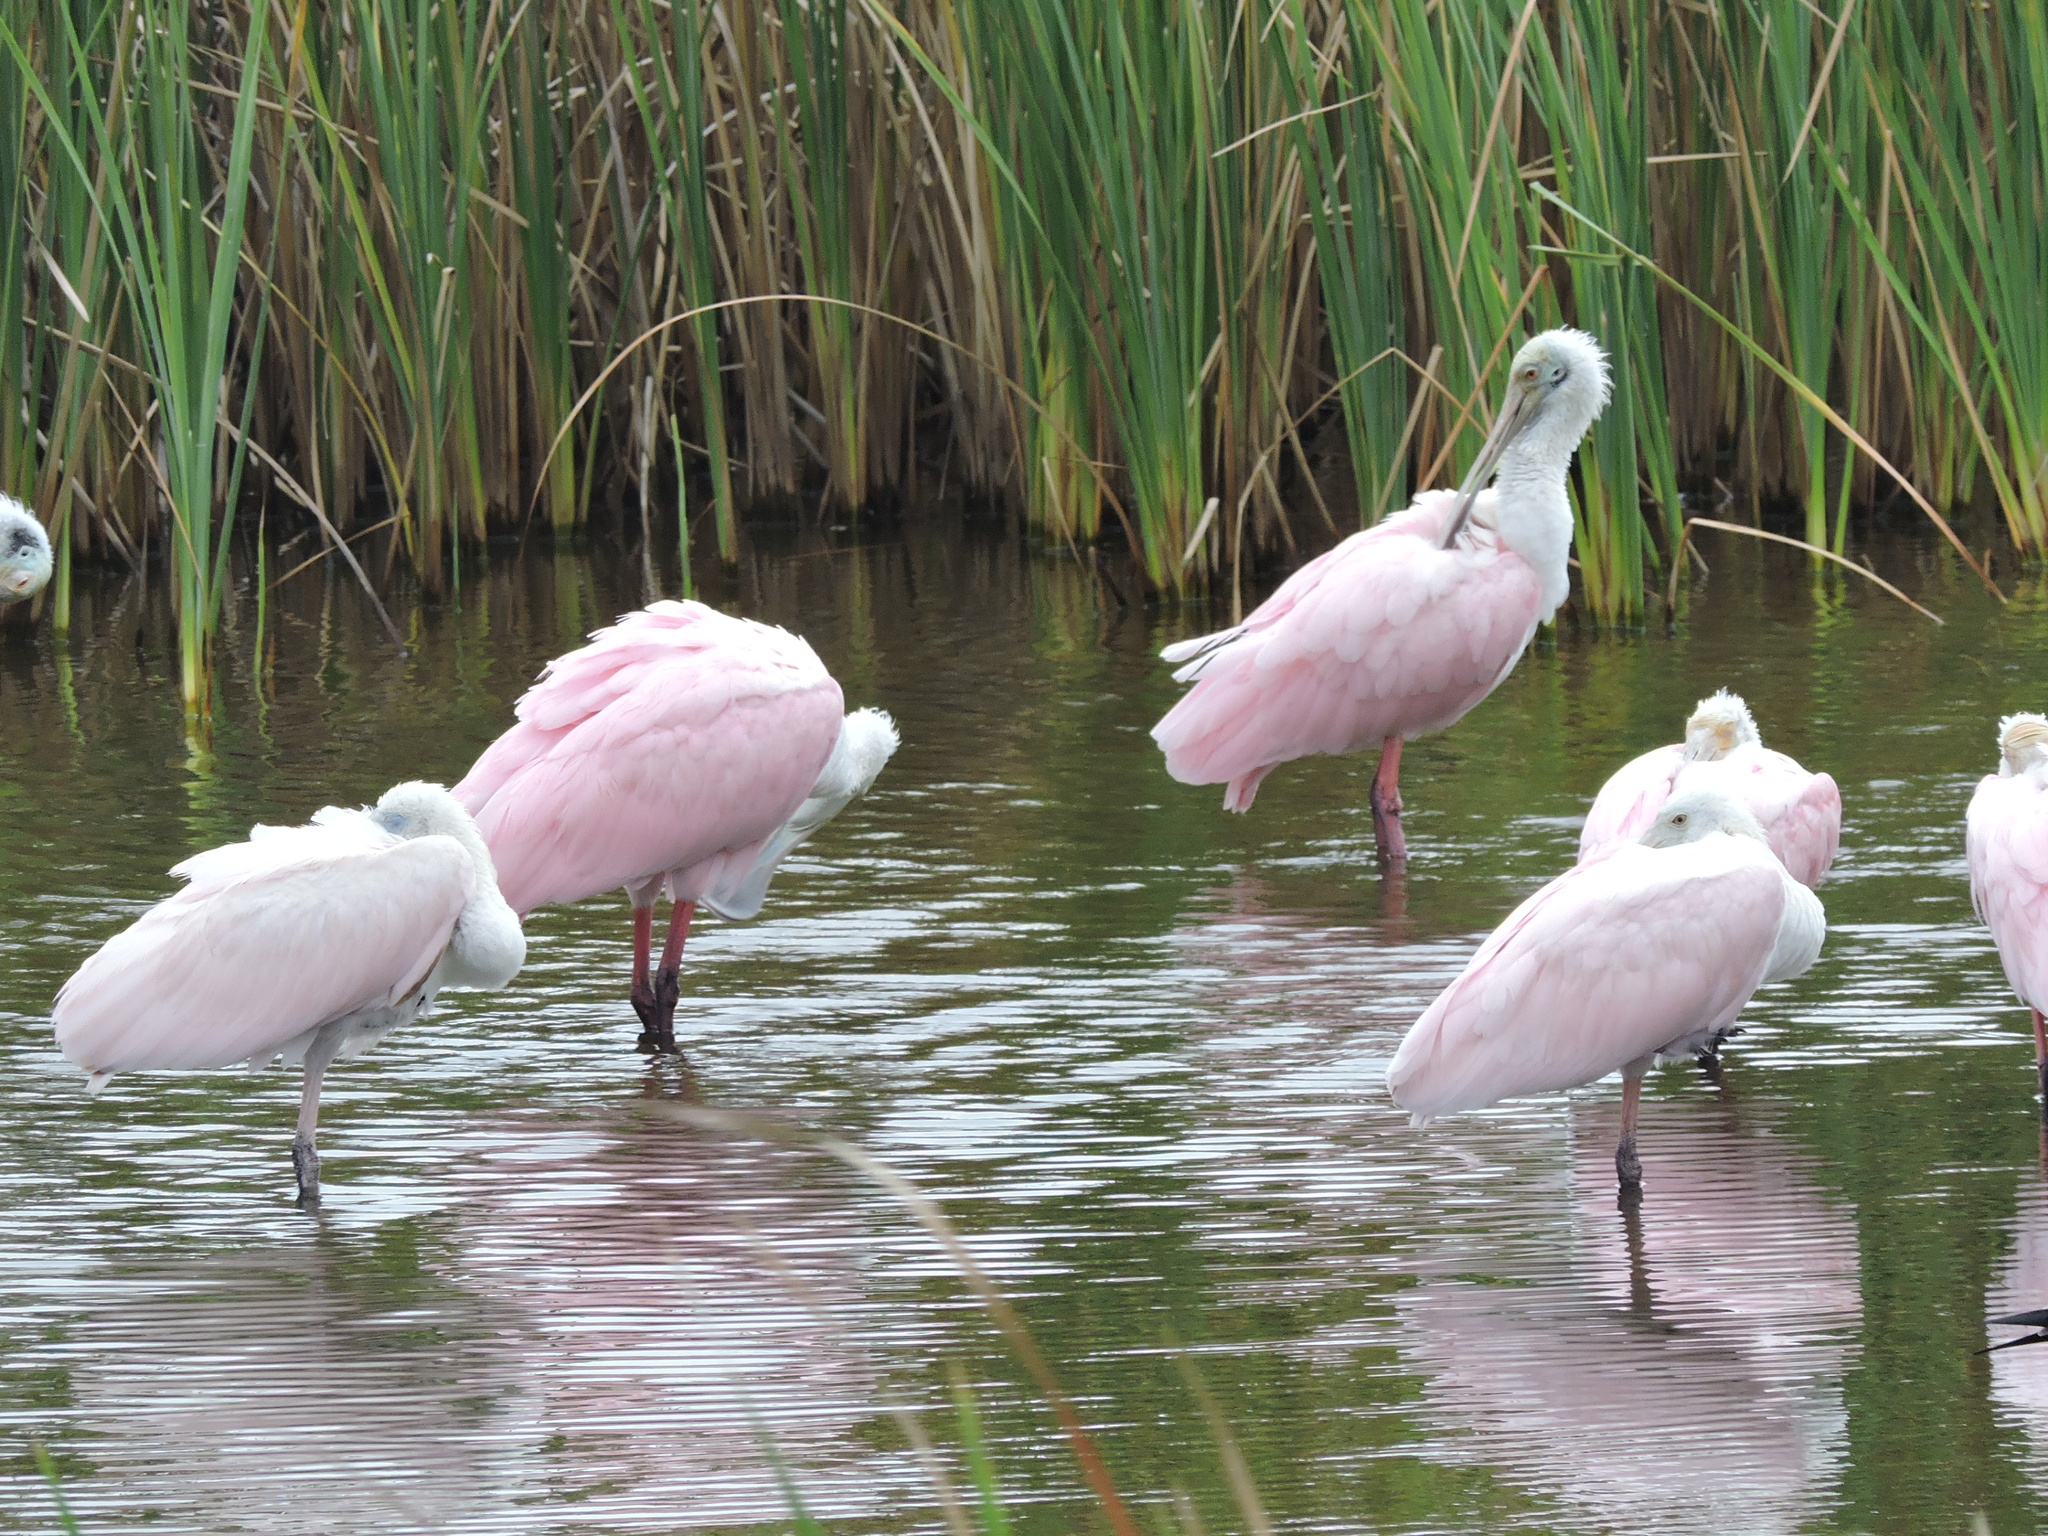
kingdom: Animalia
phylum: Chordata
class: Aves
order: Pelecaniformes
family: Threskiornithidae
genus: Platalea
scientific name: Platalea ajaja
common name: Roseate spoonbill
